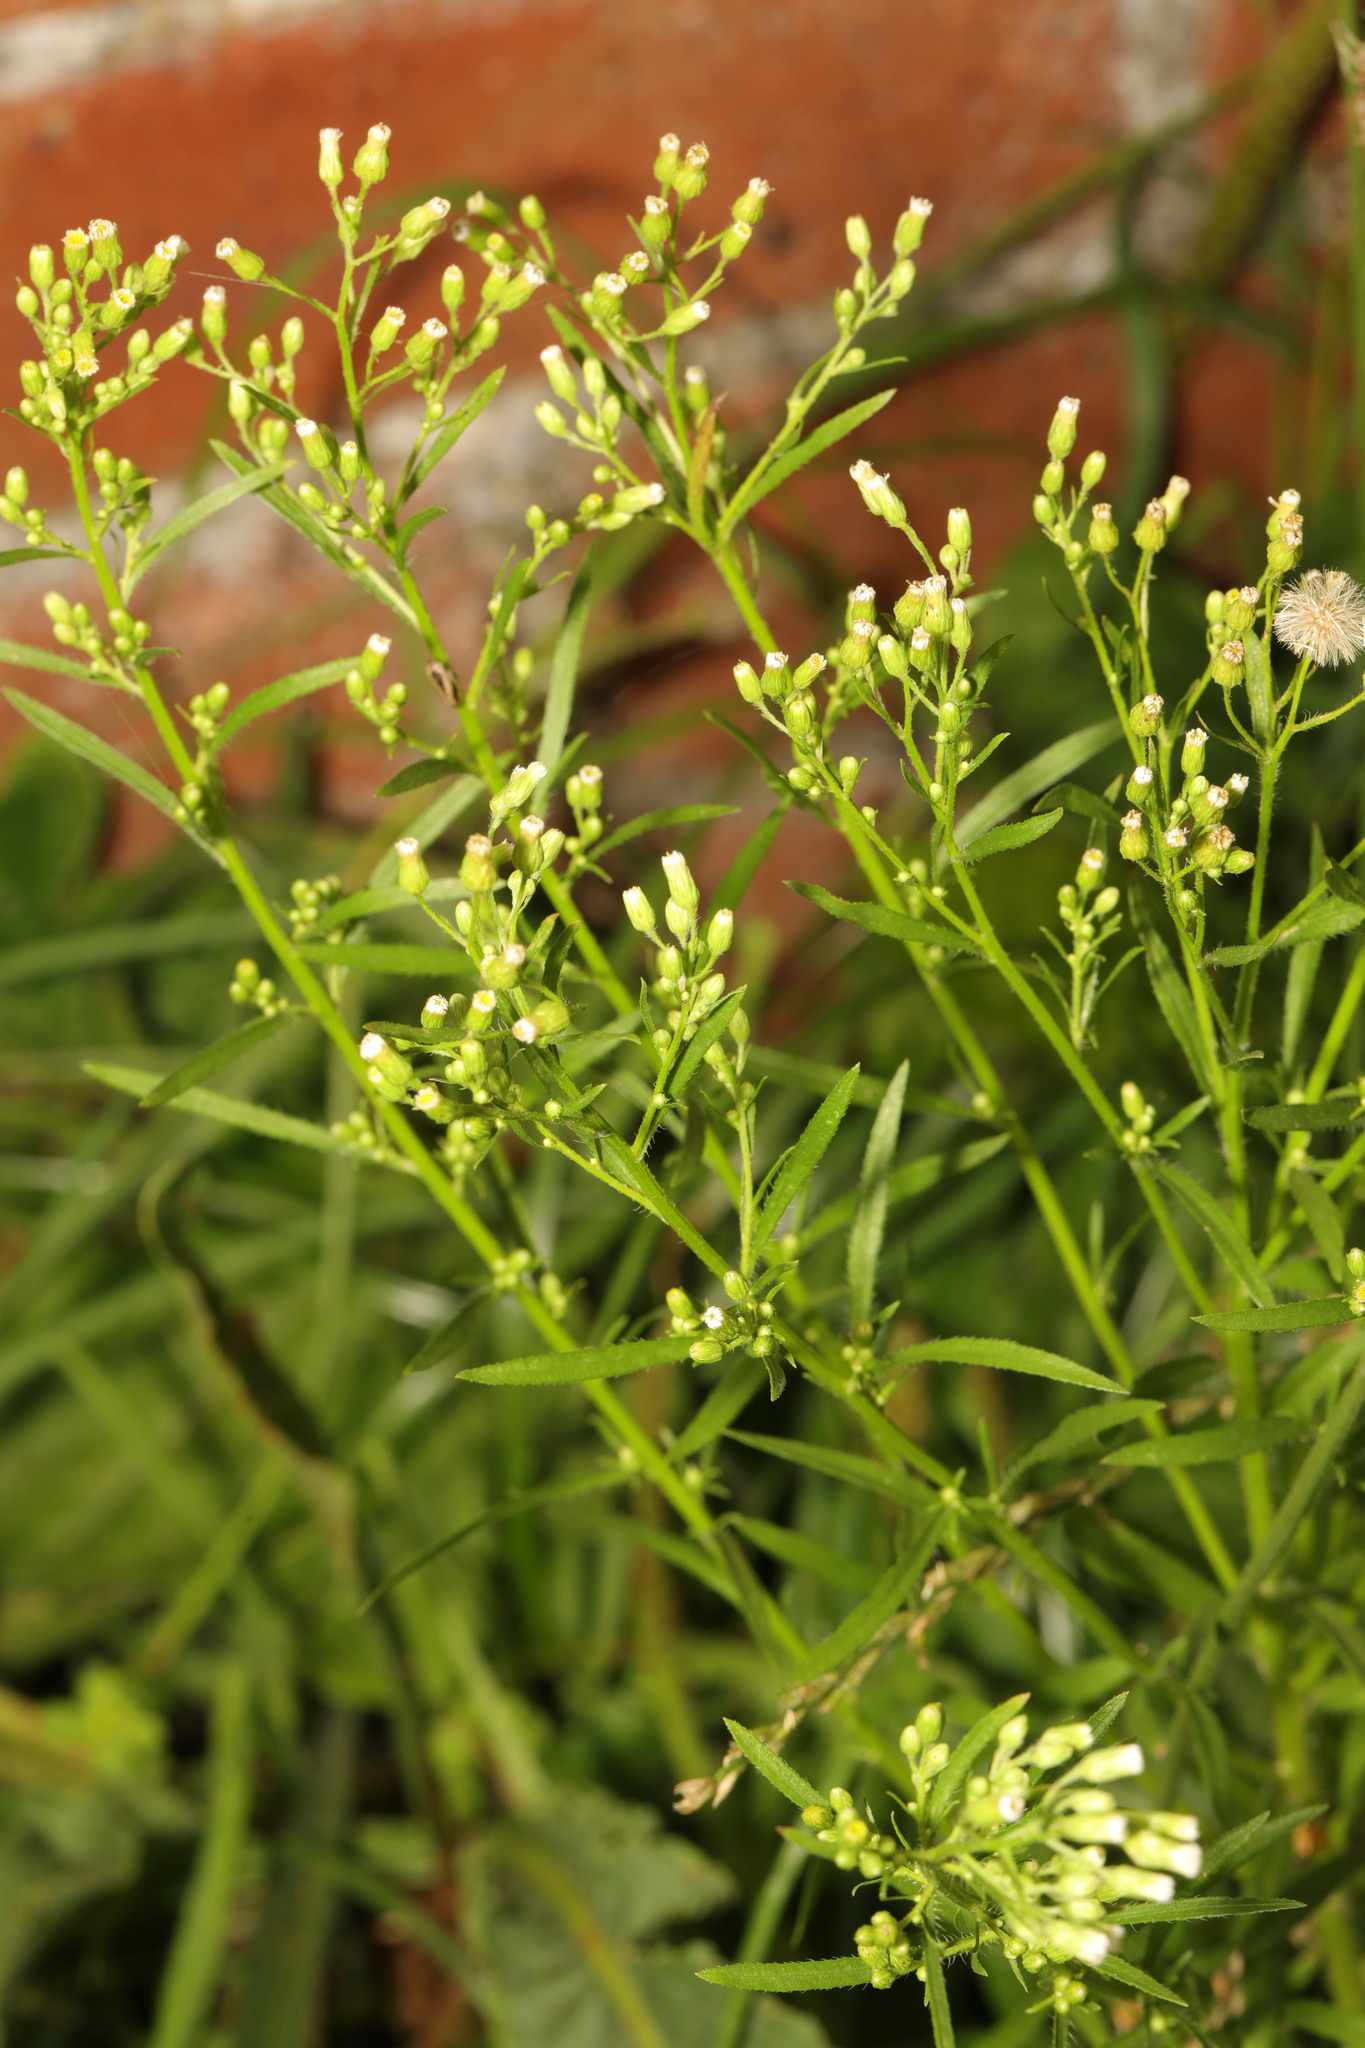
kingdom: Plantae
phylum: Tracheophyta
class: Magnoliopsida
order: Asterales
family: Asteraceae
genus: Erigeron
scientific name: Erigeron canadensis
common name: Canadian fleabane
